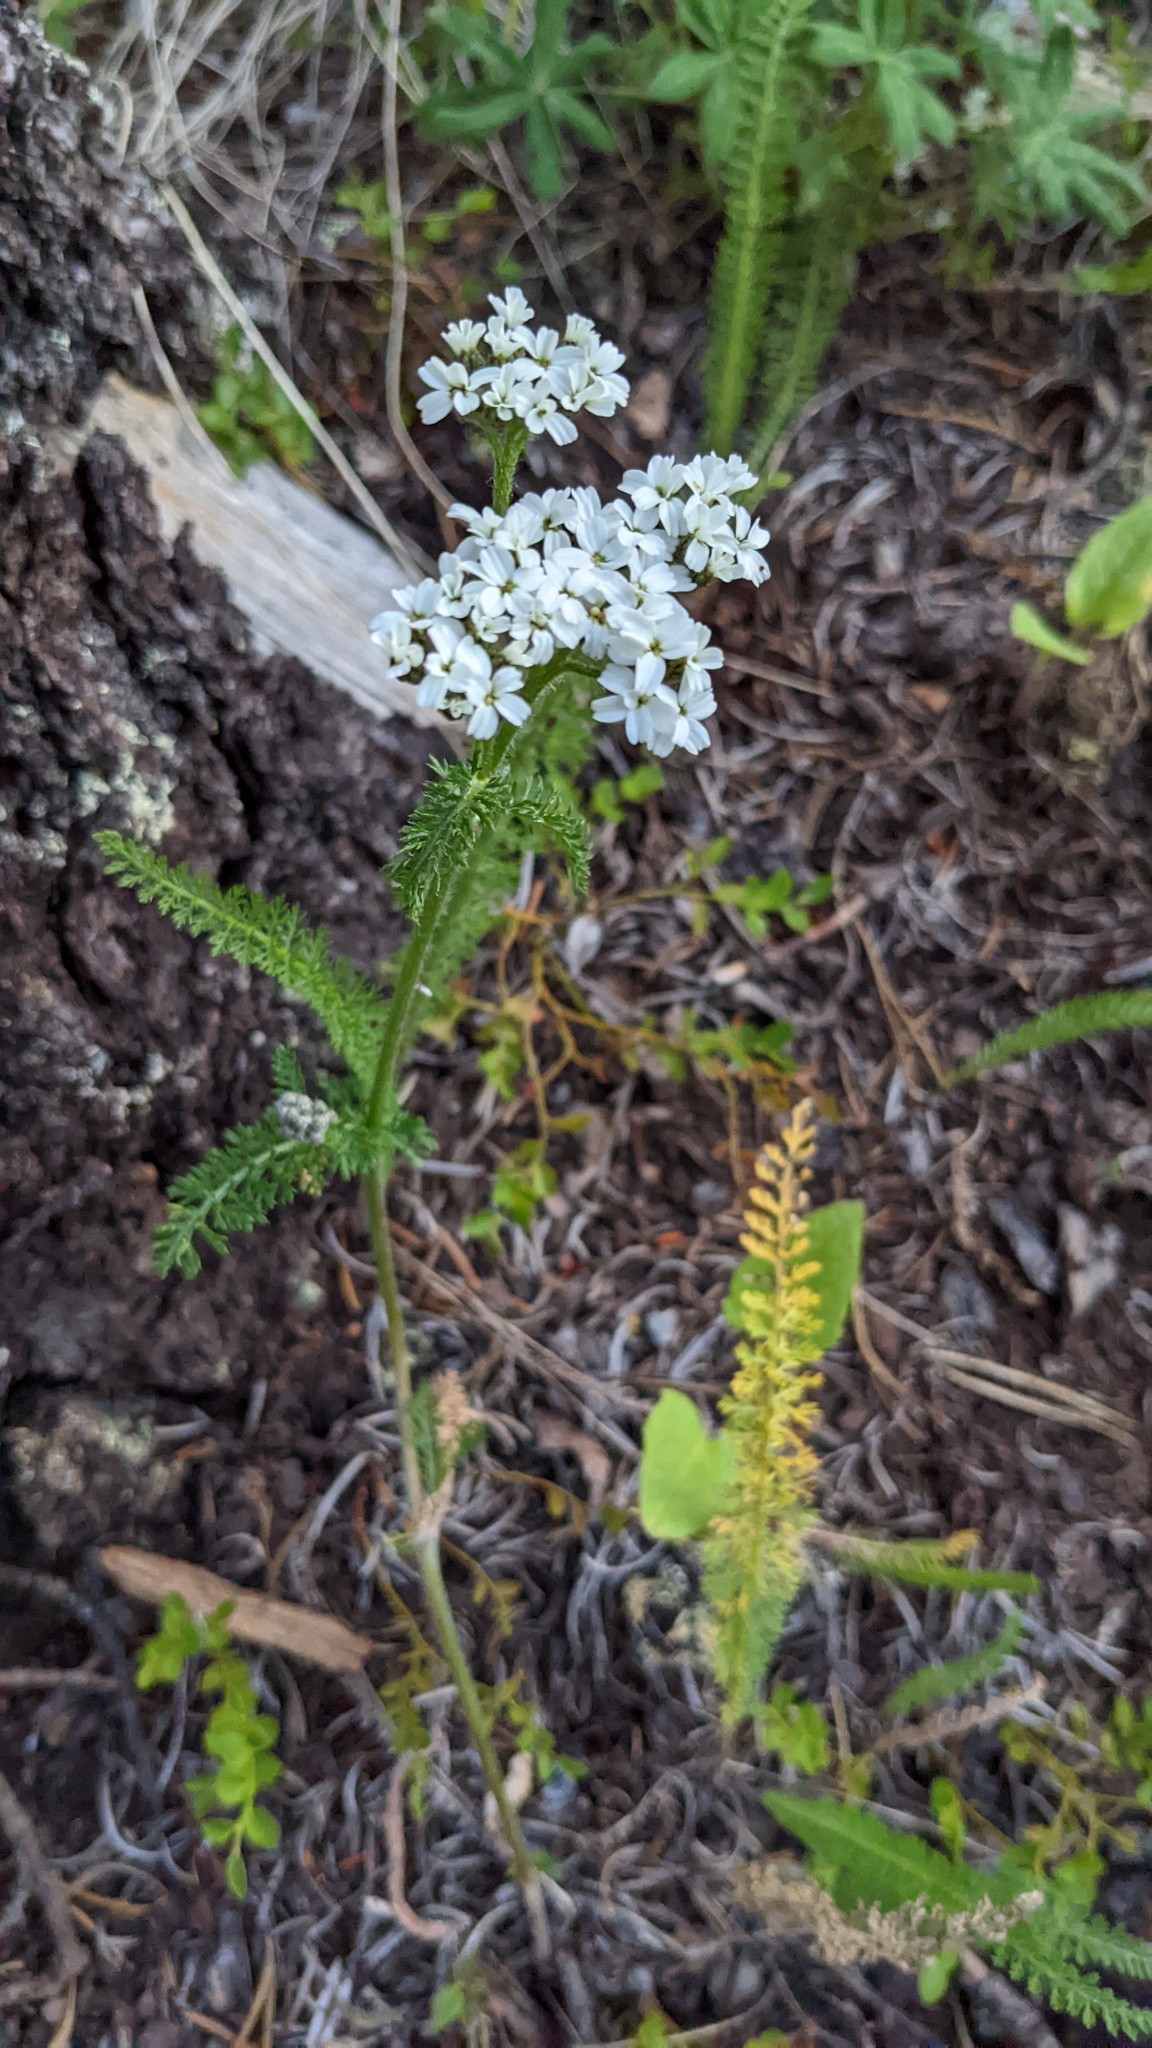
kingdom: Plantae
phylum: Tracheophyta
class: Magnoliopsida
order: Asterales
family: Asteraceae
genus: Achillea
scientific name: Achillea millefolium
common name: Yarrow
